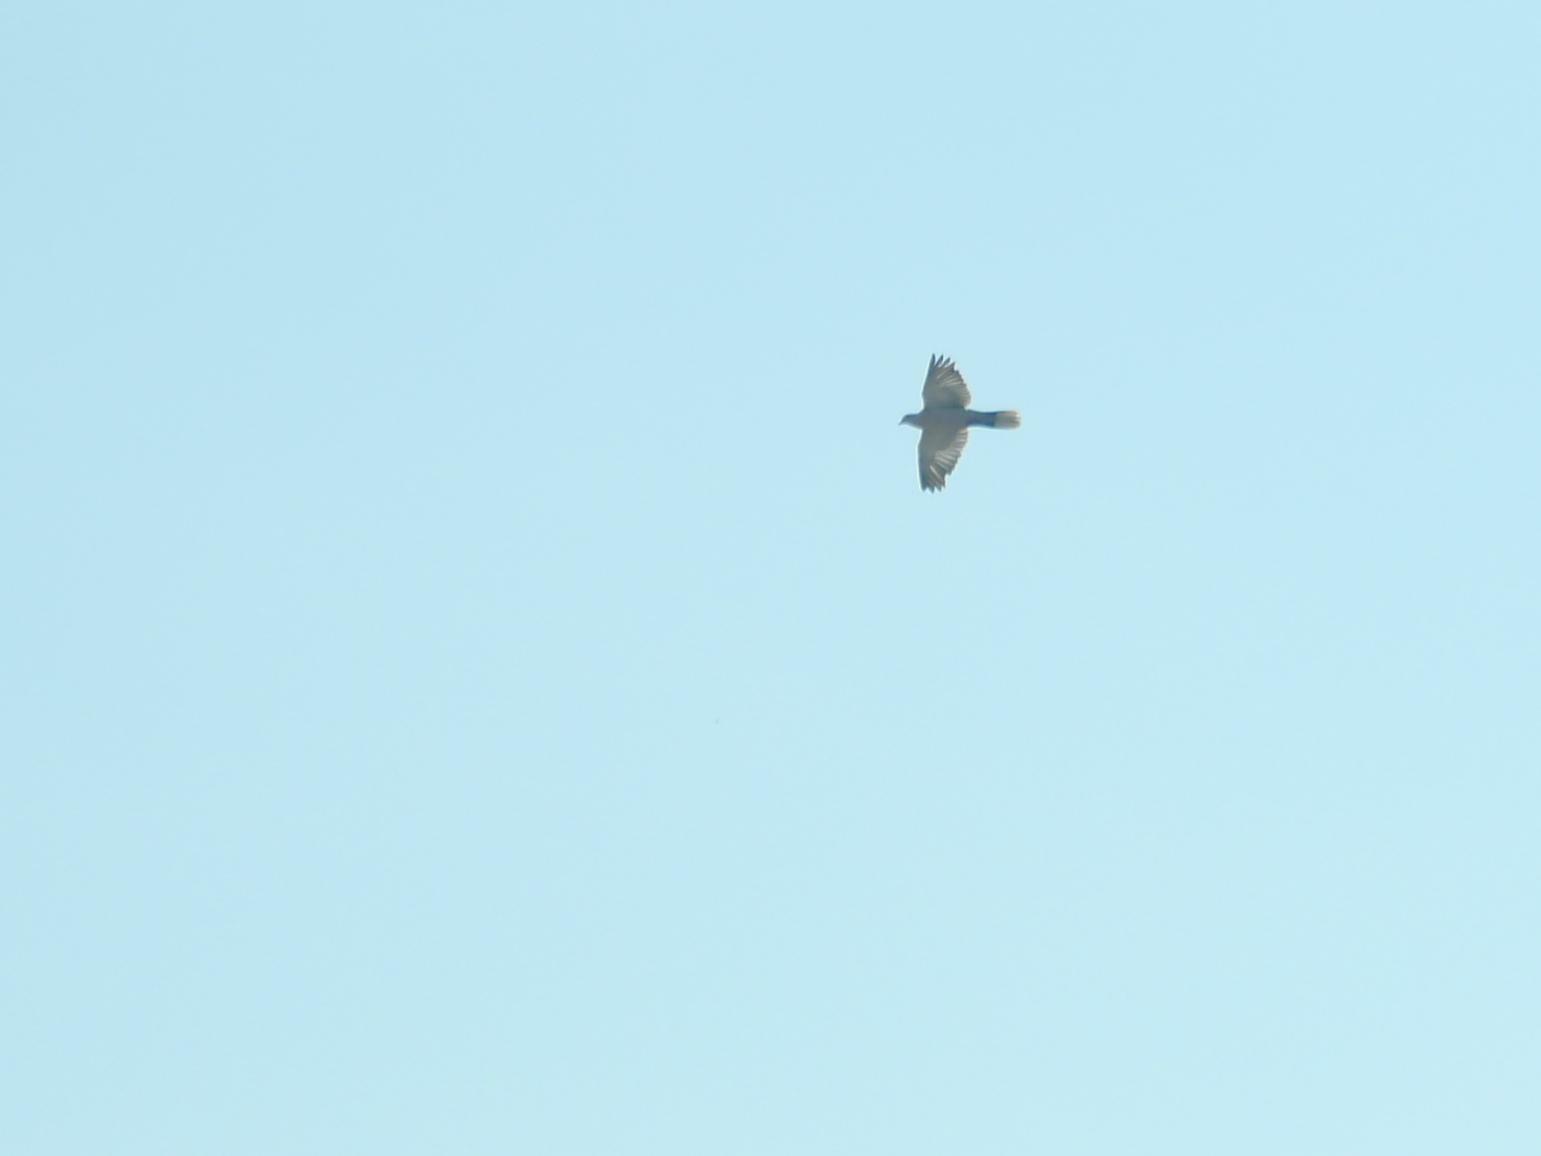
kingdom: Animalia
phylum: Chordata
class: Aves
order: Columbiformes
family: Columbidae
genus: Streptopelia
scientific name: Streptopelia decaocto
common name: Eurasian collared dove
